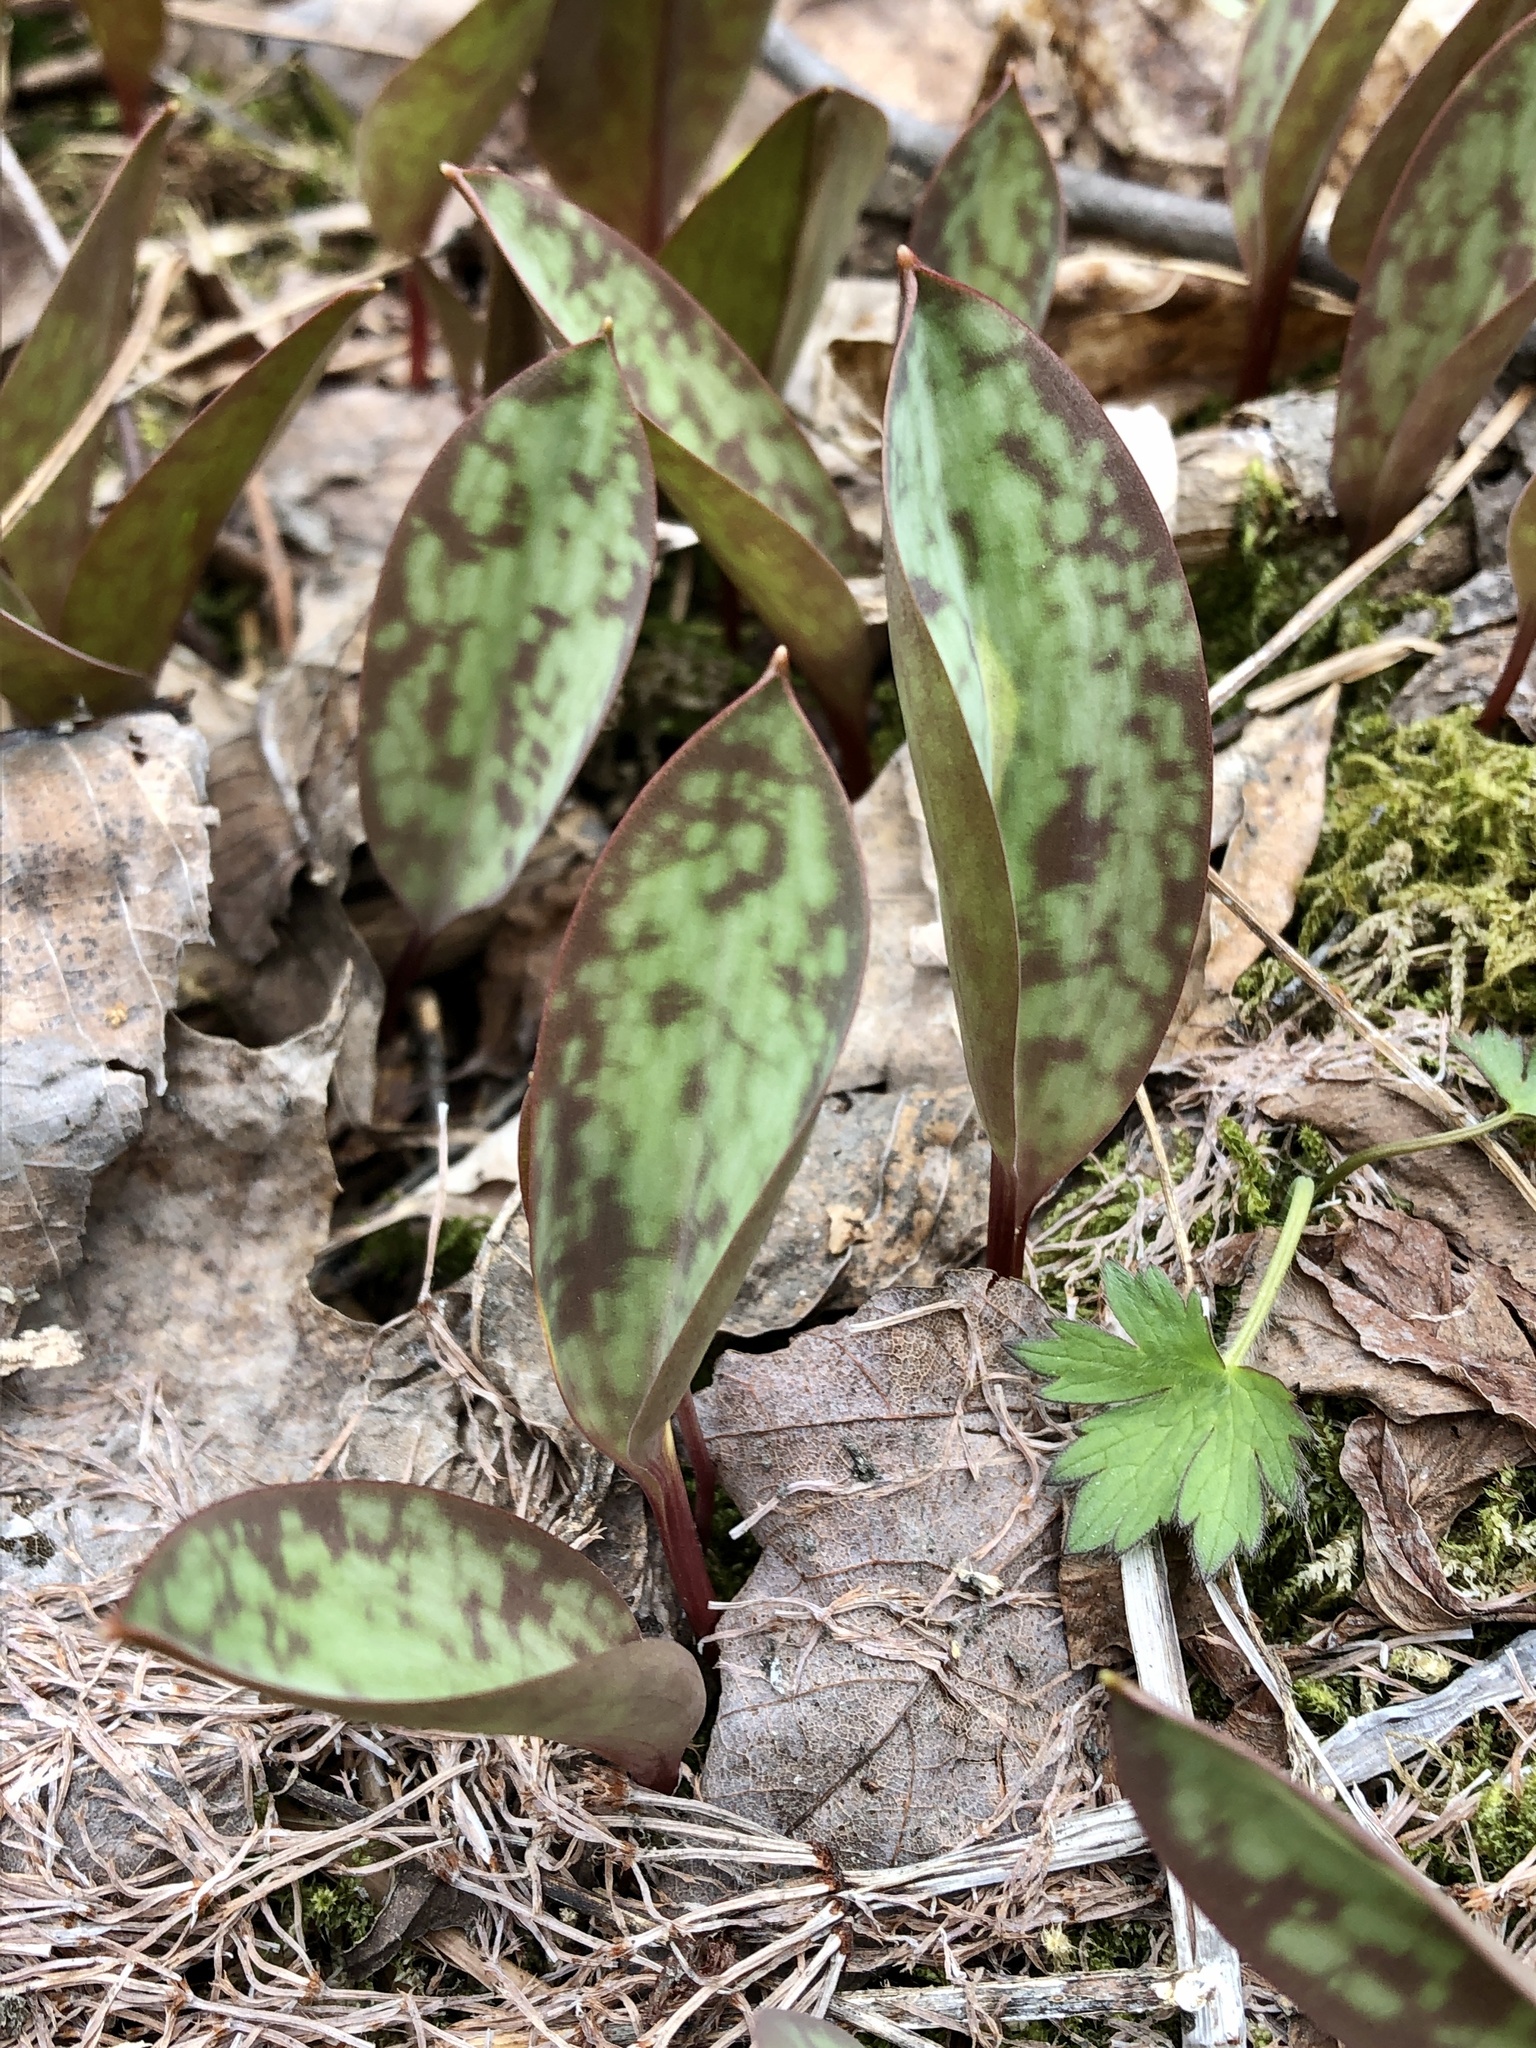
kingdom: Plantae
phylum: Tracheophyta
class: Liliopsida
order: Liliales
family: Liliaceae
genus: Erythronium
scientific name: Erythronium americanum
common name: Yellow adder's-tongue
